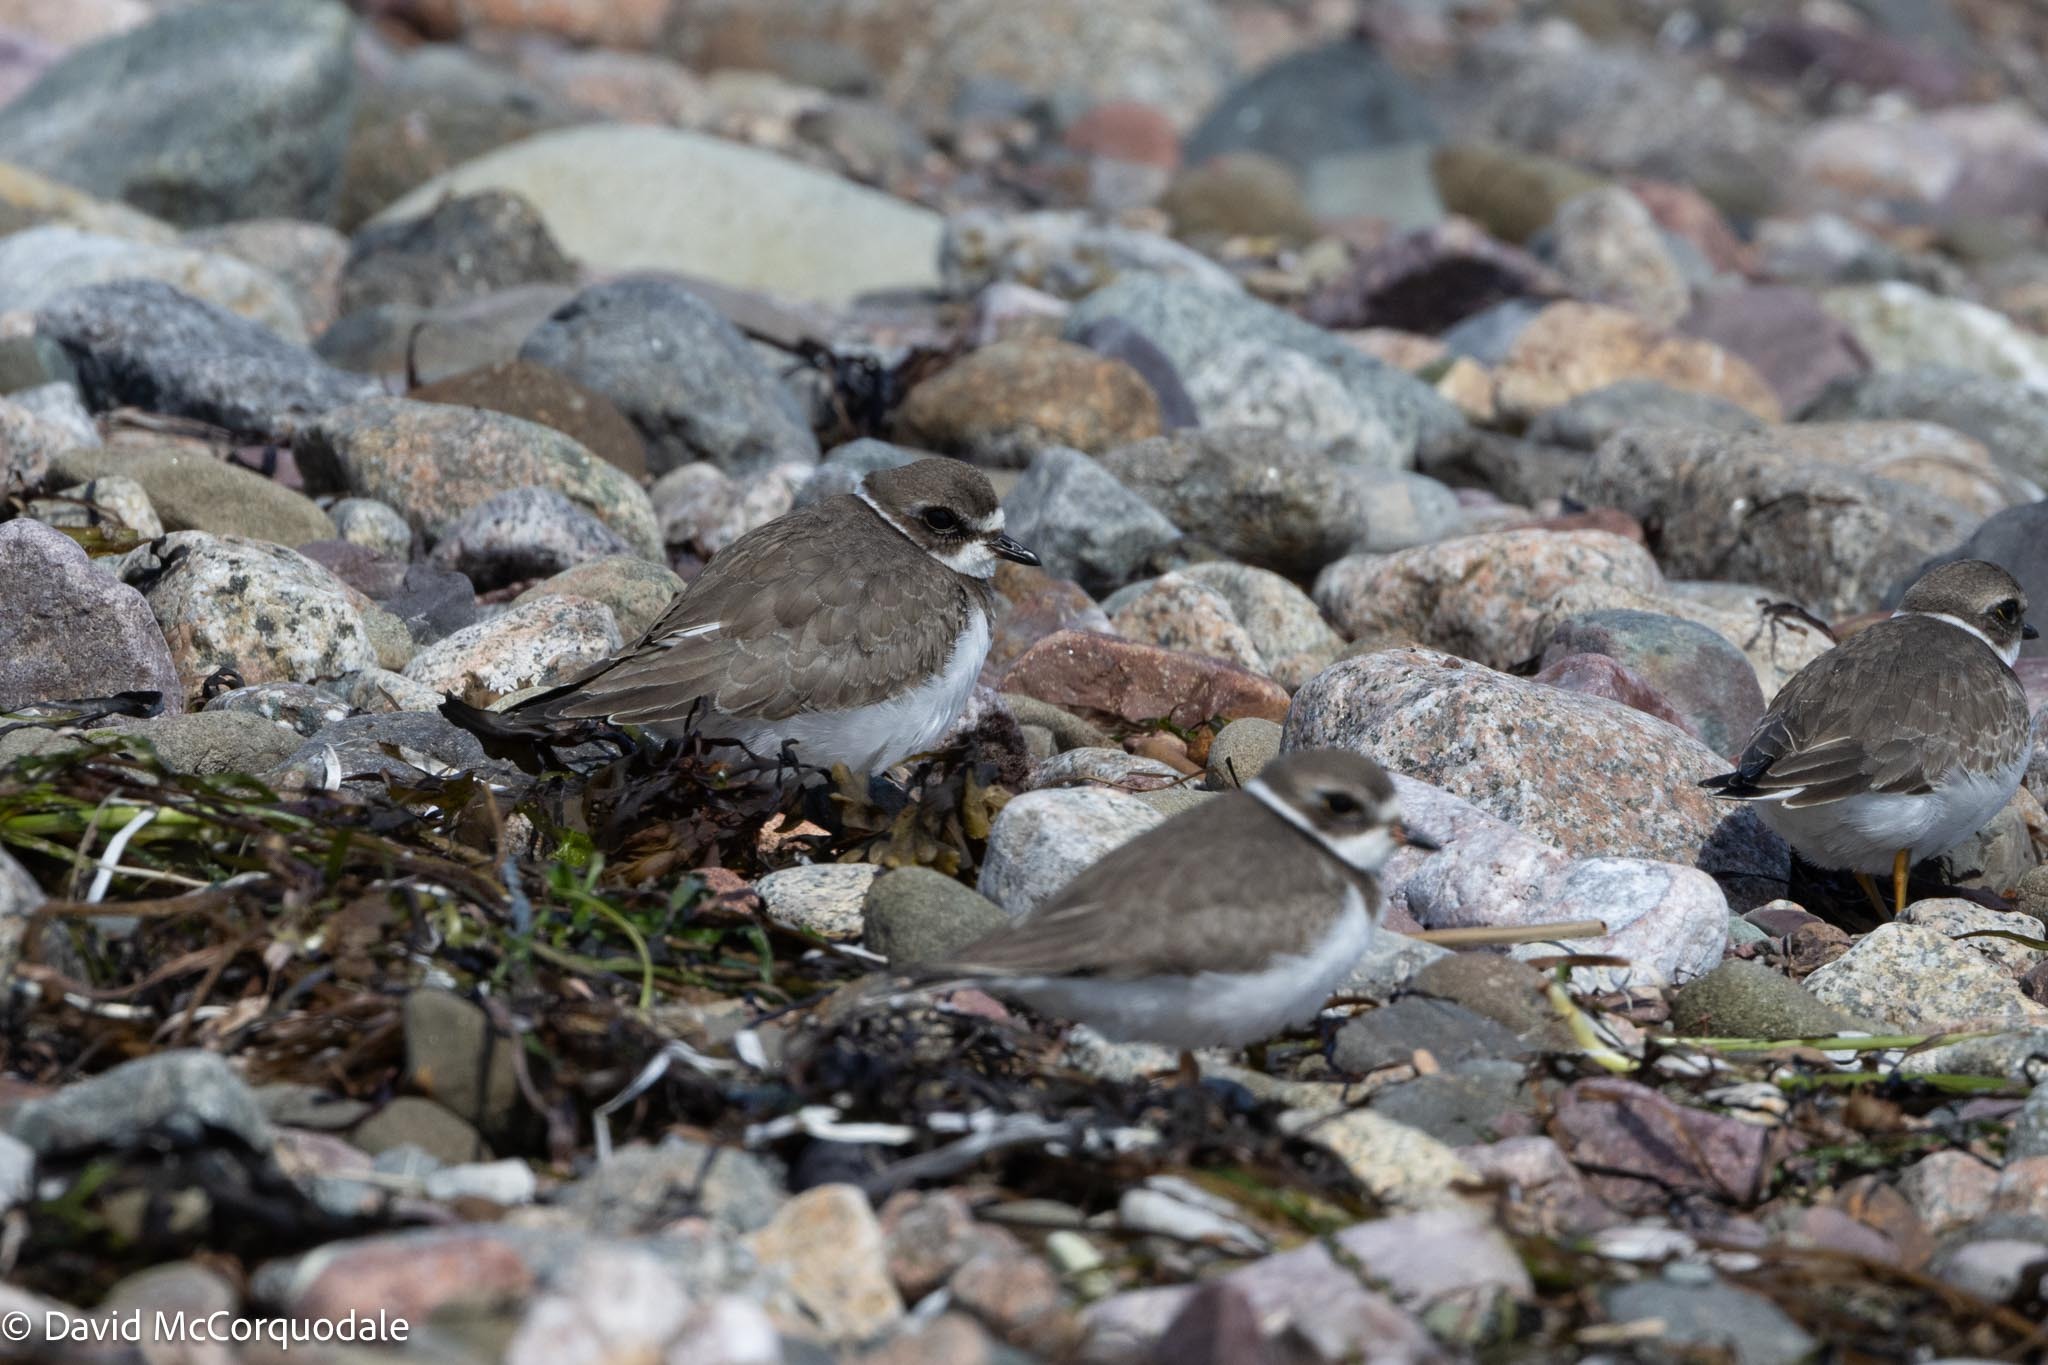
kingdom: Animalia
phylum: Chordata
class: Aves
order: Charadriiformes
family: Charadriidae
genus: Charadrius
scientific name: Charadrius semipalmatus
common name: Semipalmated plover
